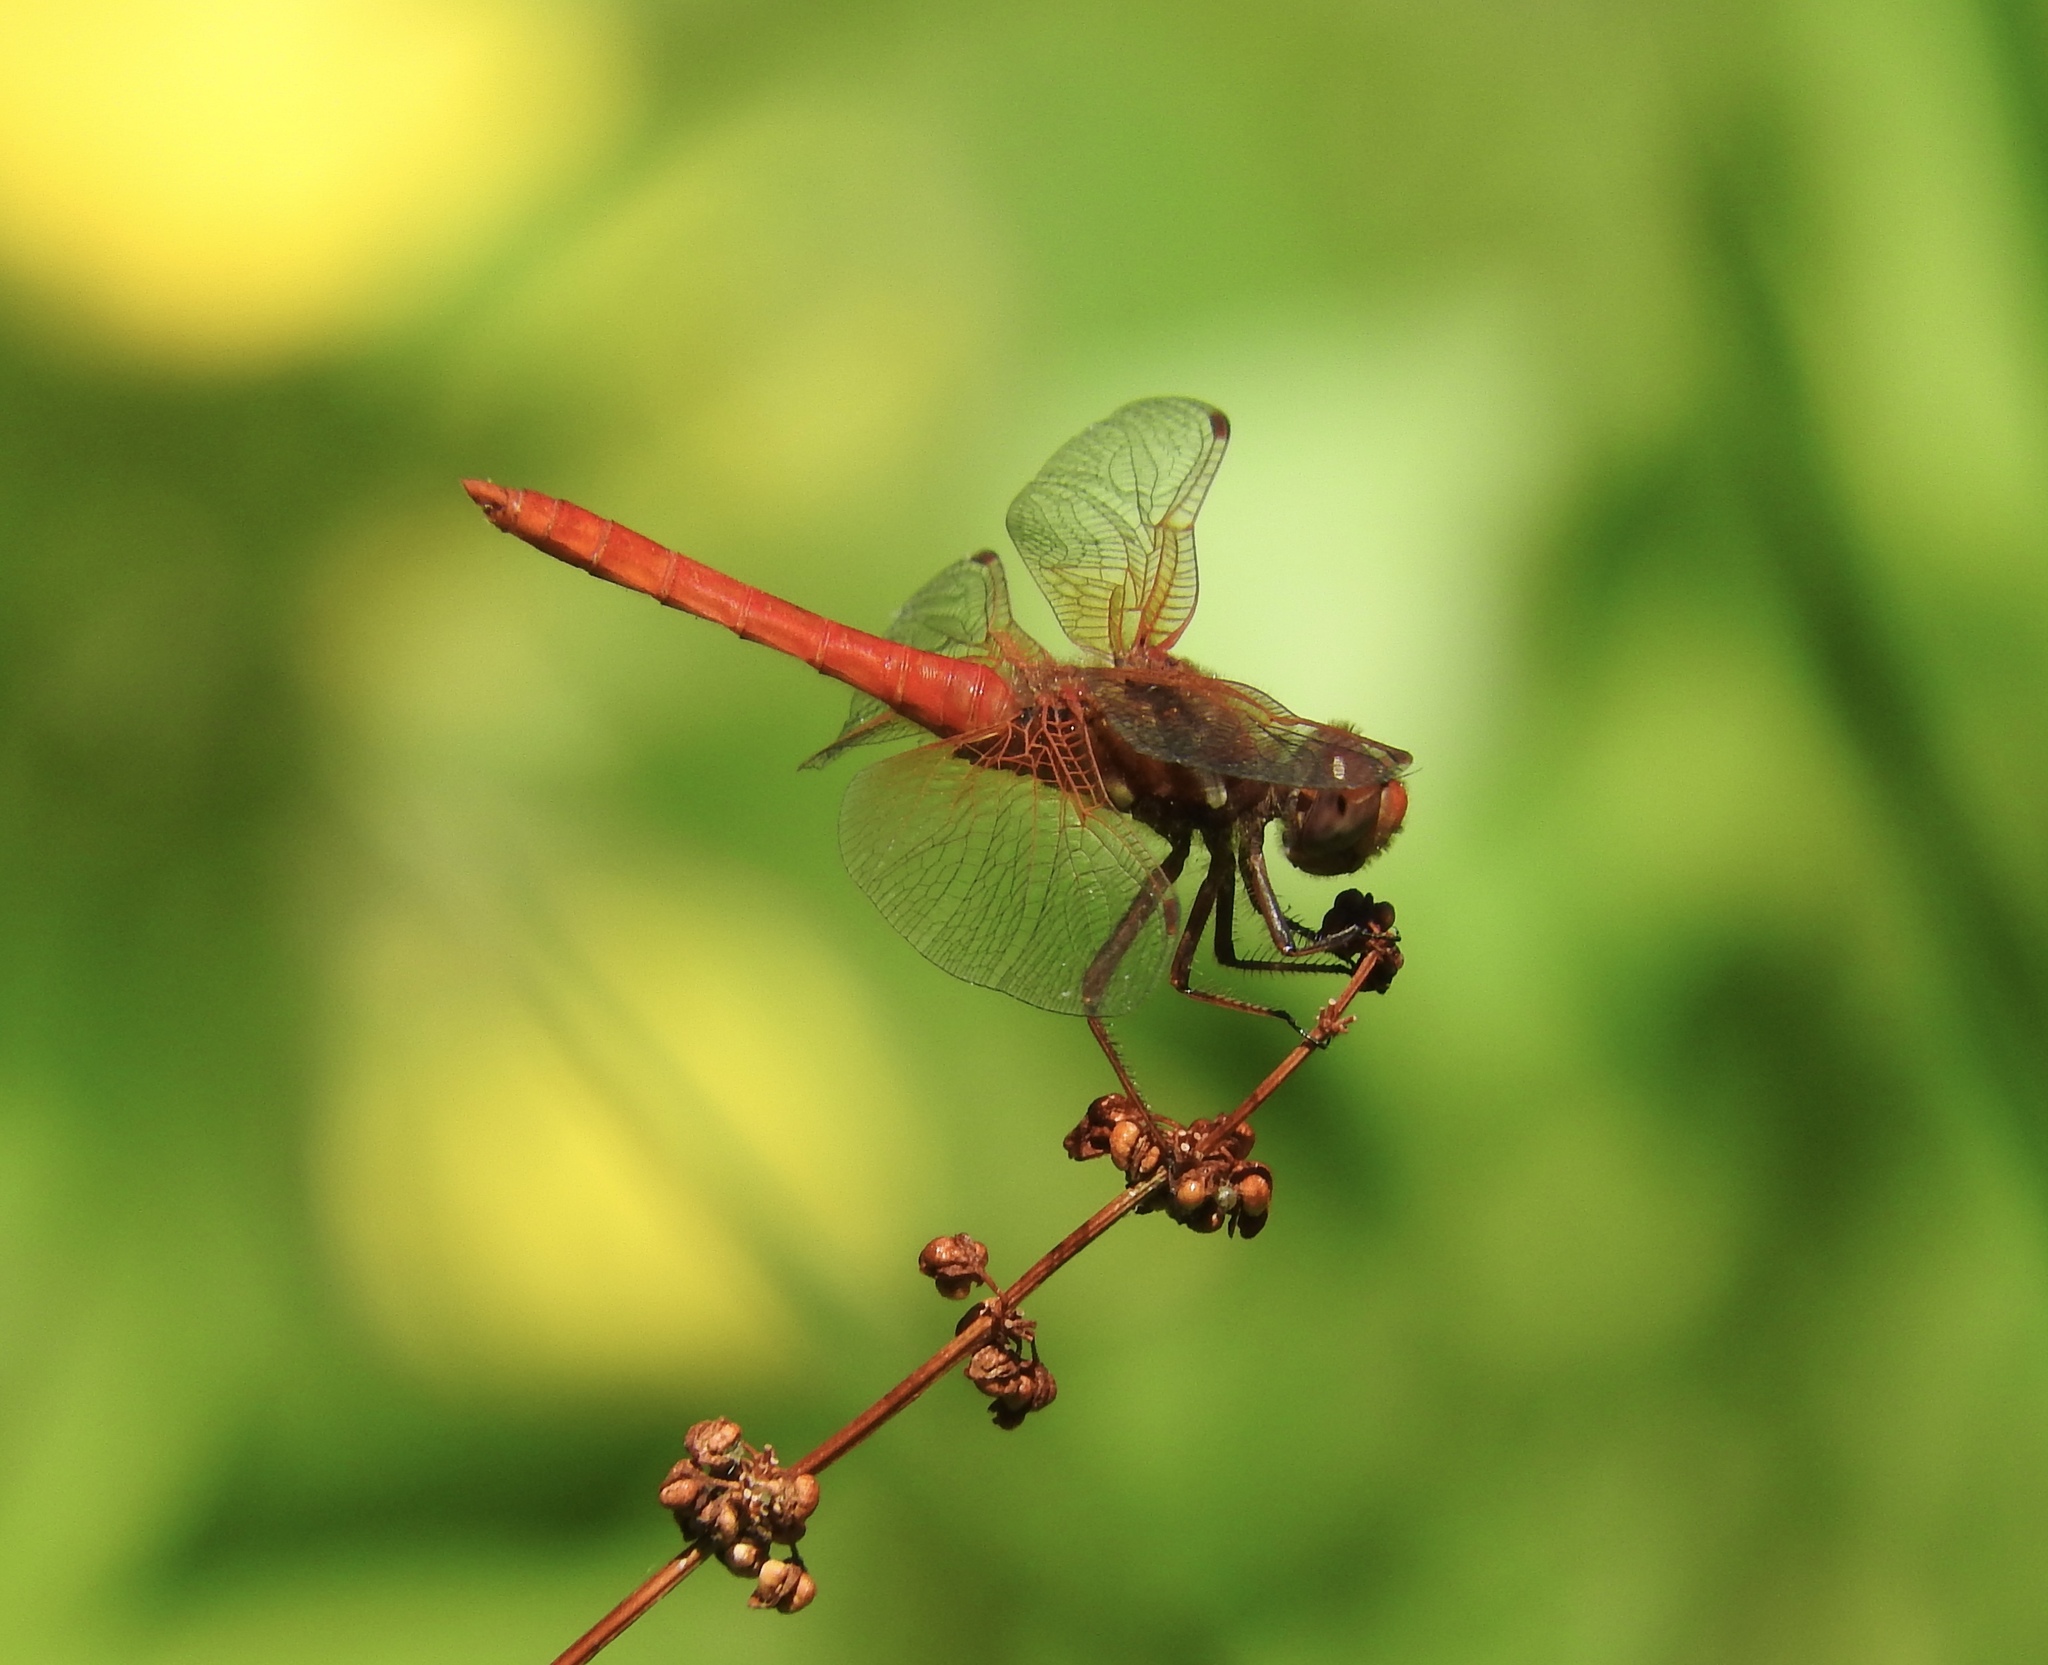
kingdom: Animalia
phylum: Arthropoda
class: Insecta
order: Odonata
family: Libellulidae
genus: Sympetrum
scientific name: Sympetrum illotum
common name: Cardinal meadowhawk
